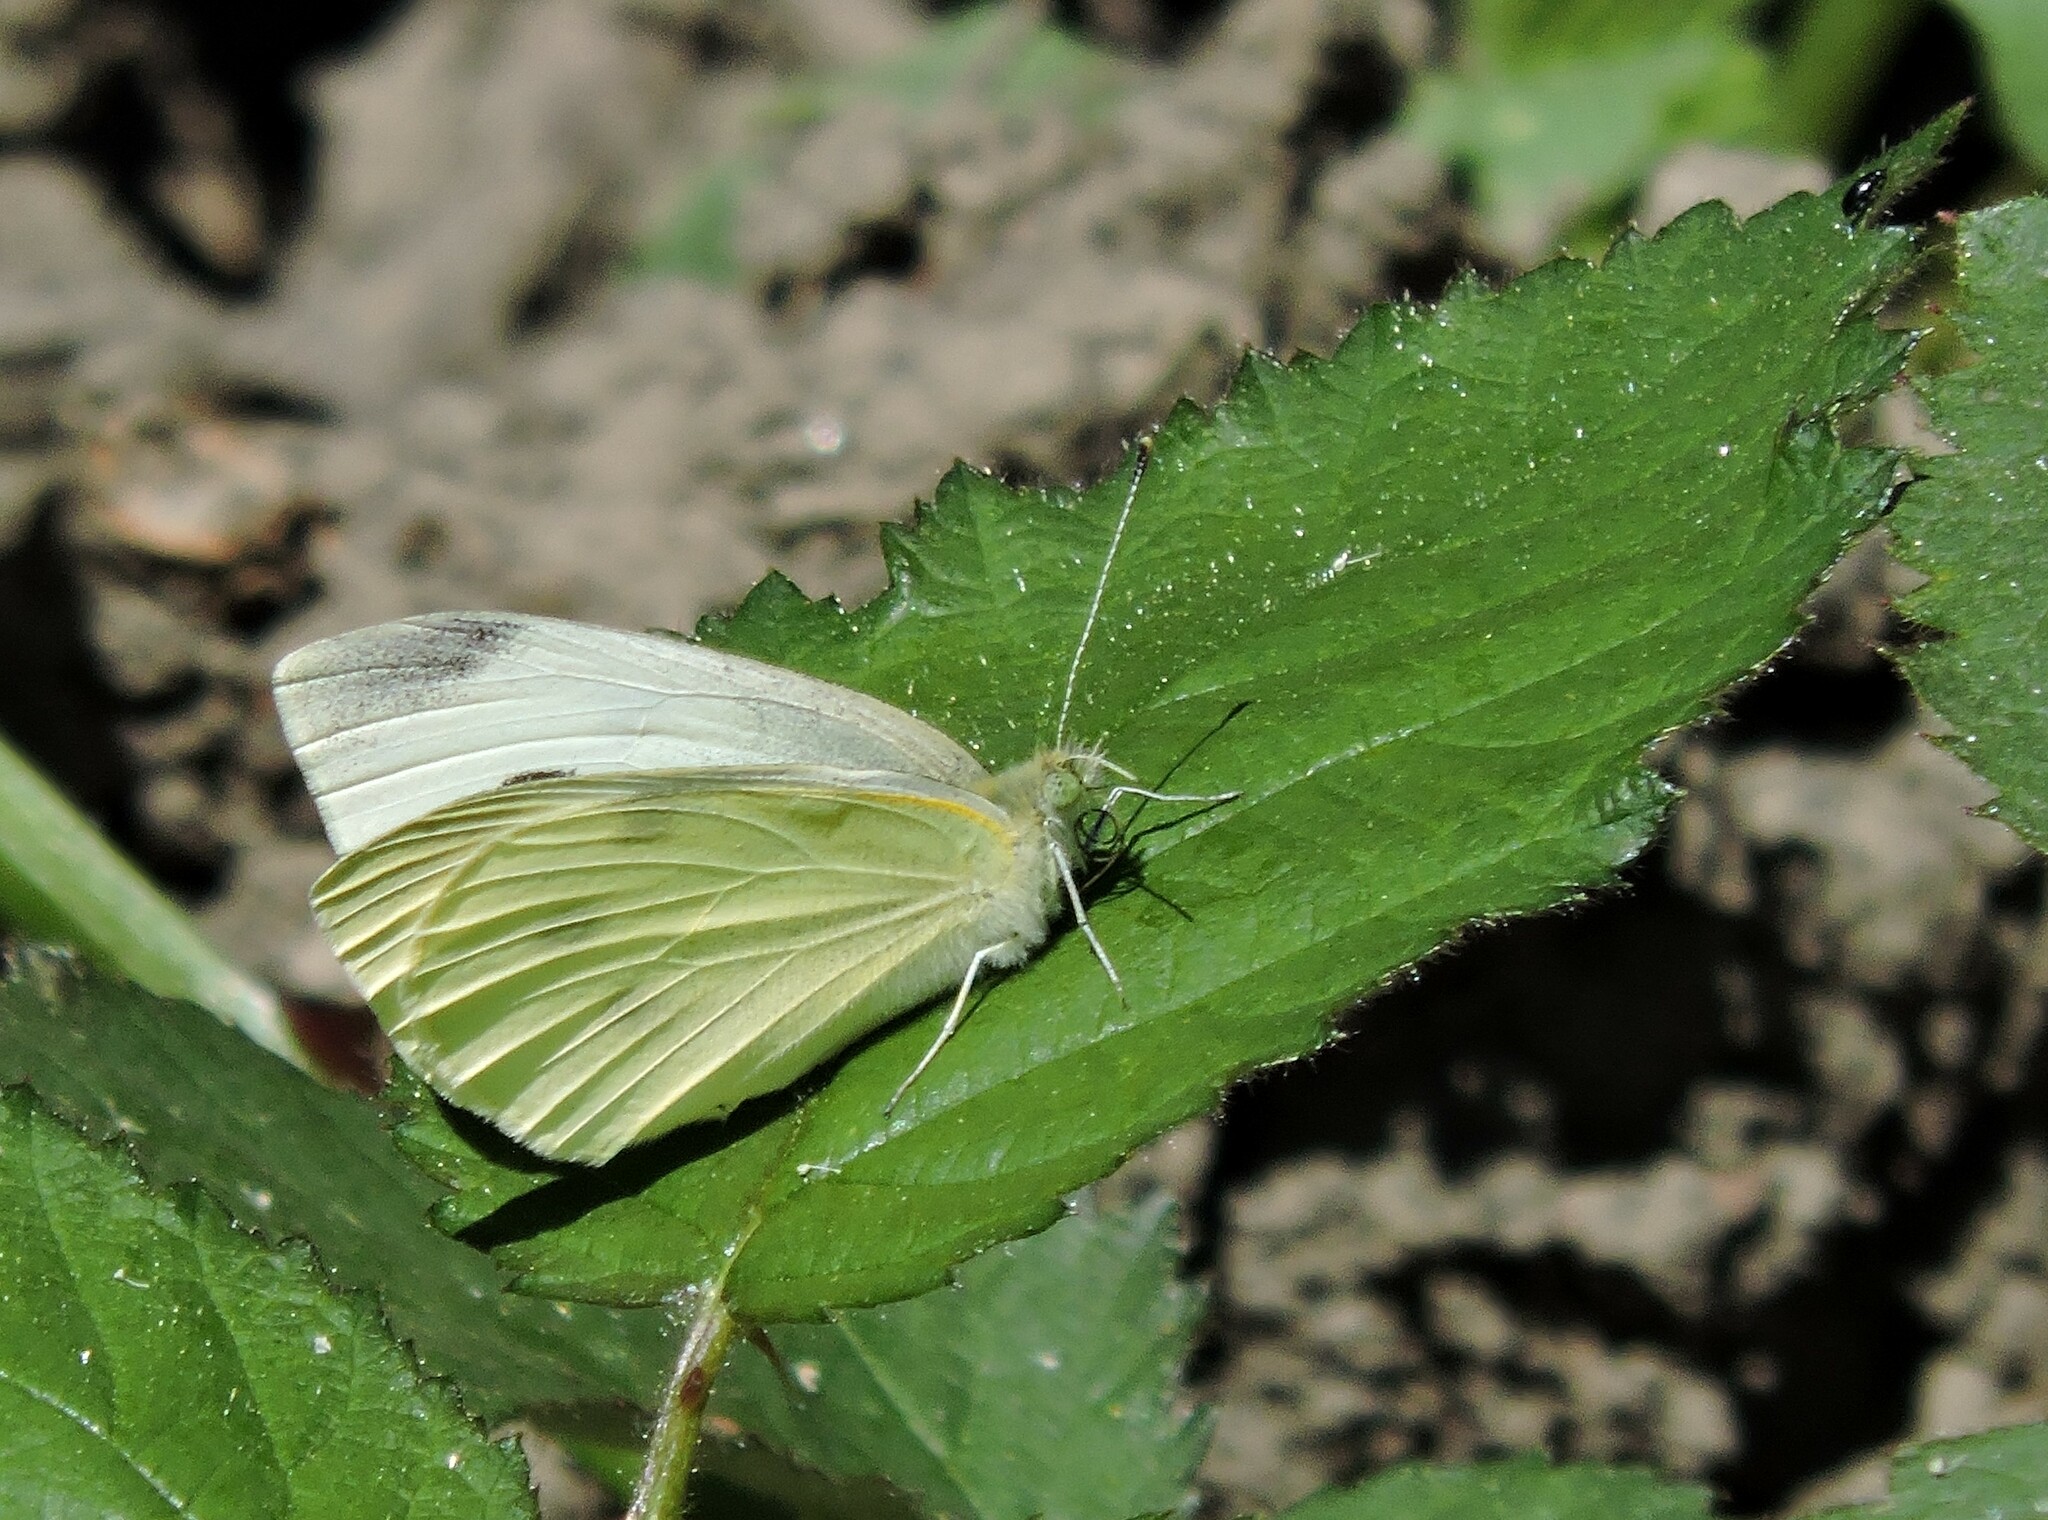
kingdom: Animalia
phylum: Arthropoda
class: Insecta
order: Lepidoptera
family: Pieridae
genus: Pieris
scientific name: Pieris rapae
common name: Small white
